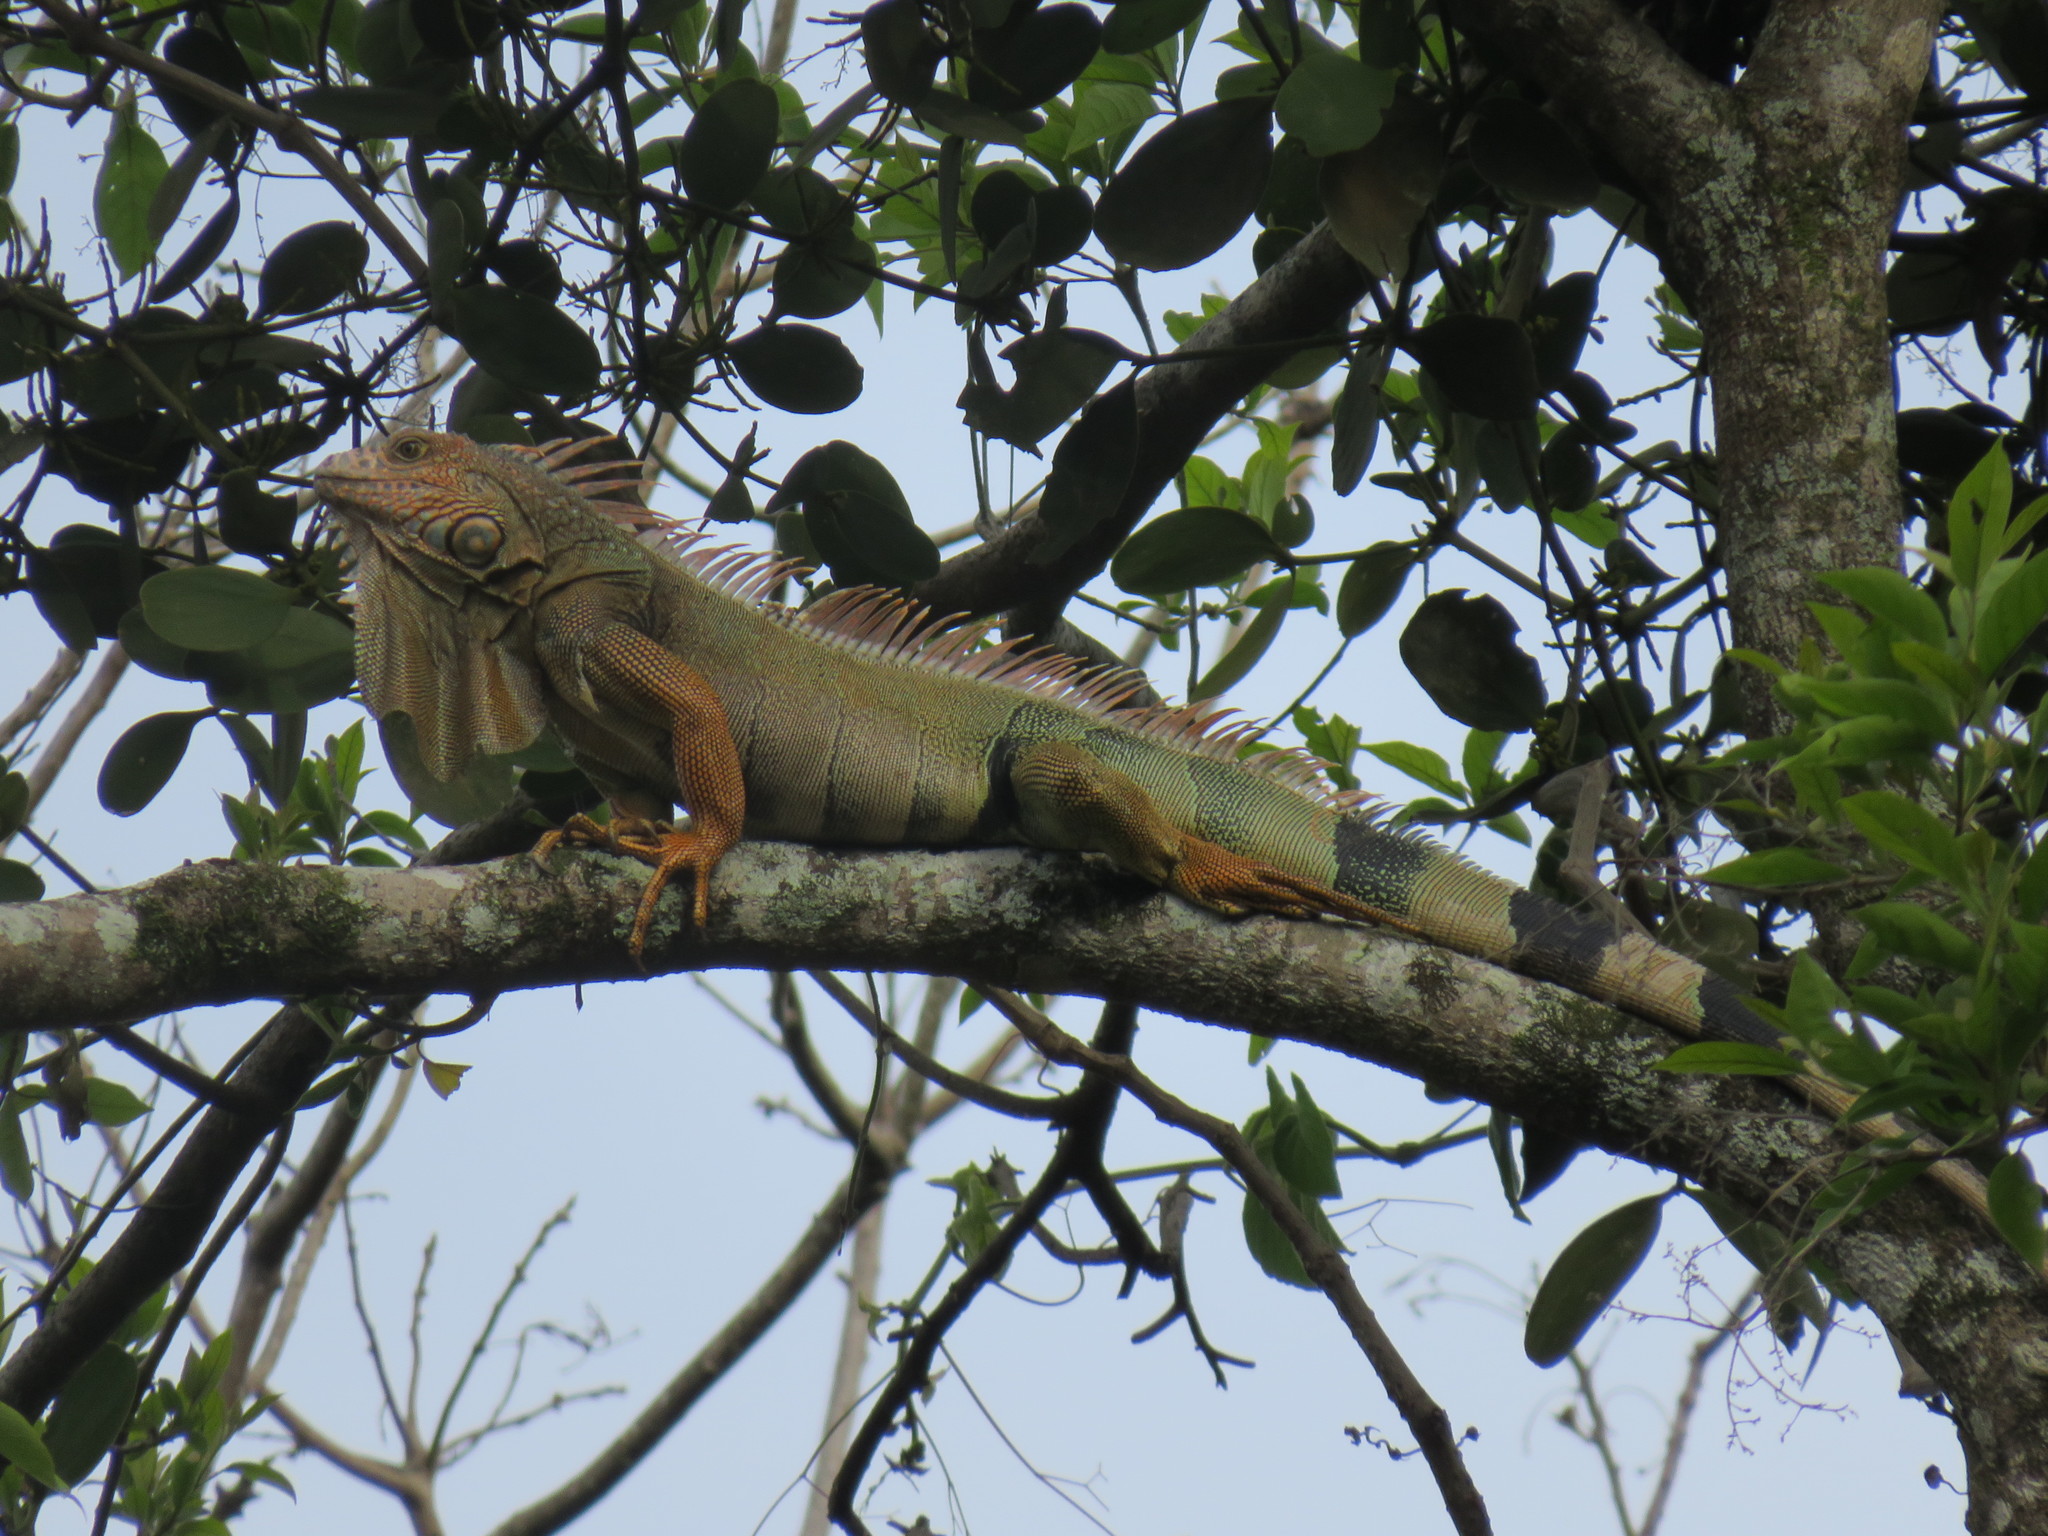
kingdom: Animalia
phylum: Chordata
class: Squamata
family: Iguanidae
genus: Iguana
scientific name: Iguana iguana
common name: Green iguana
